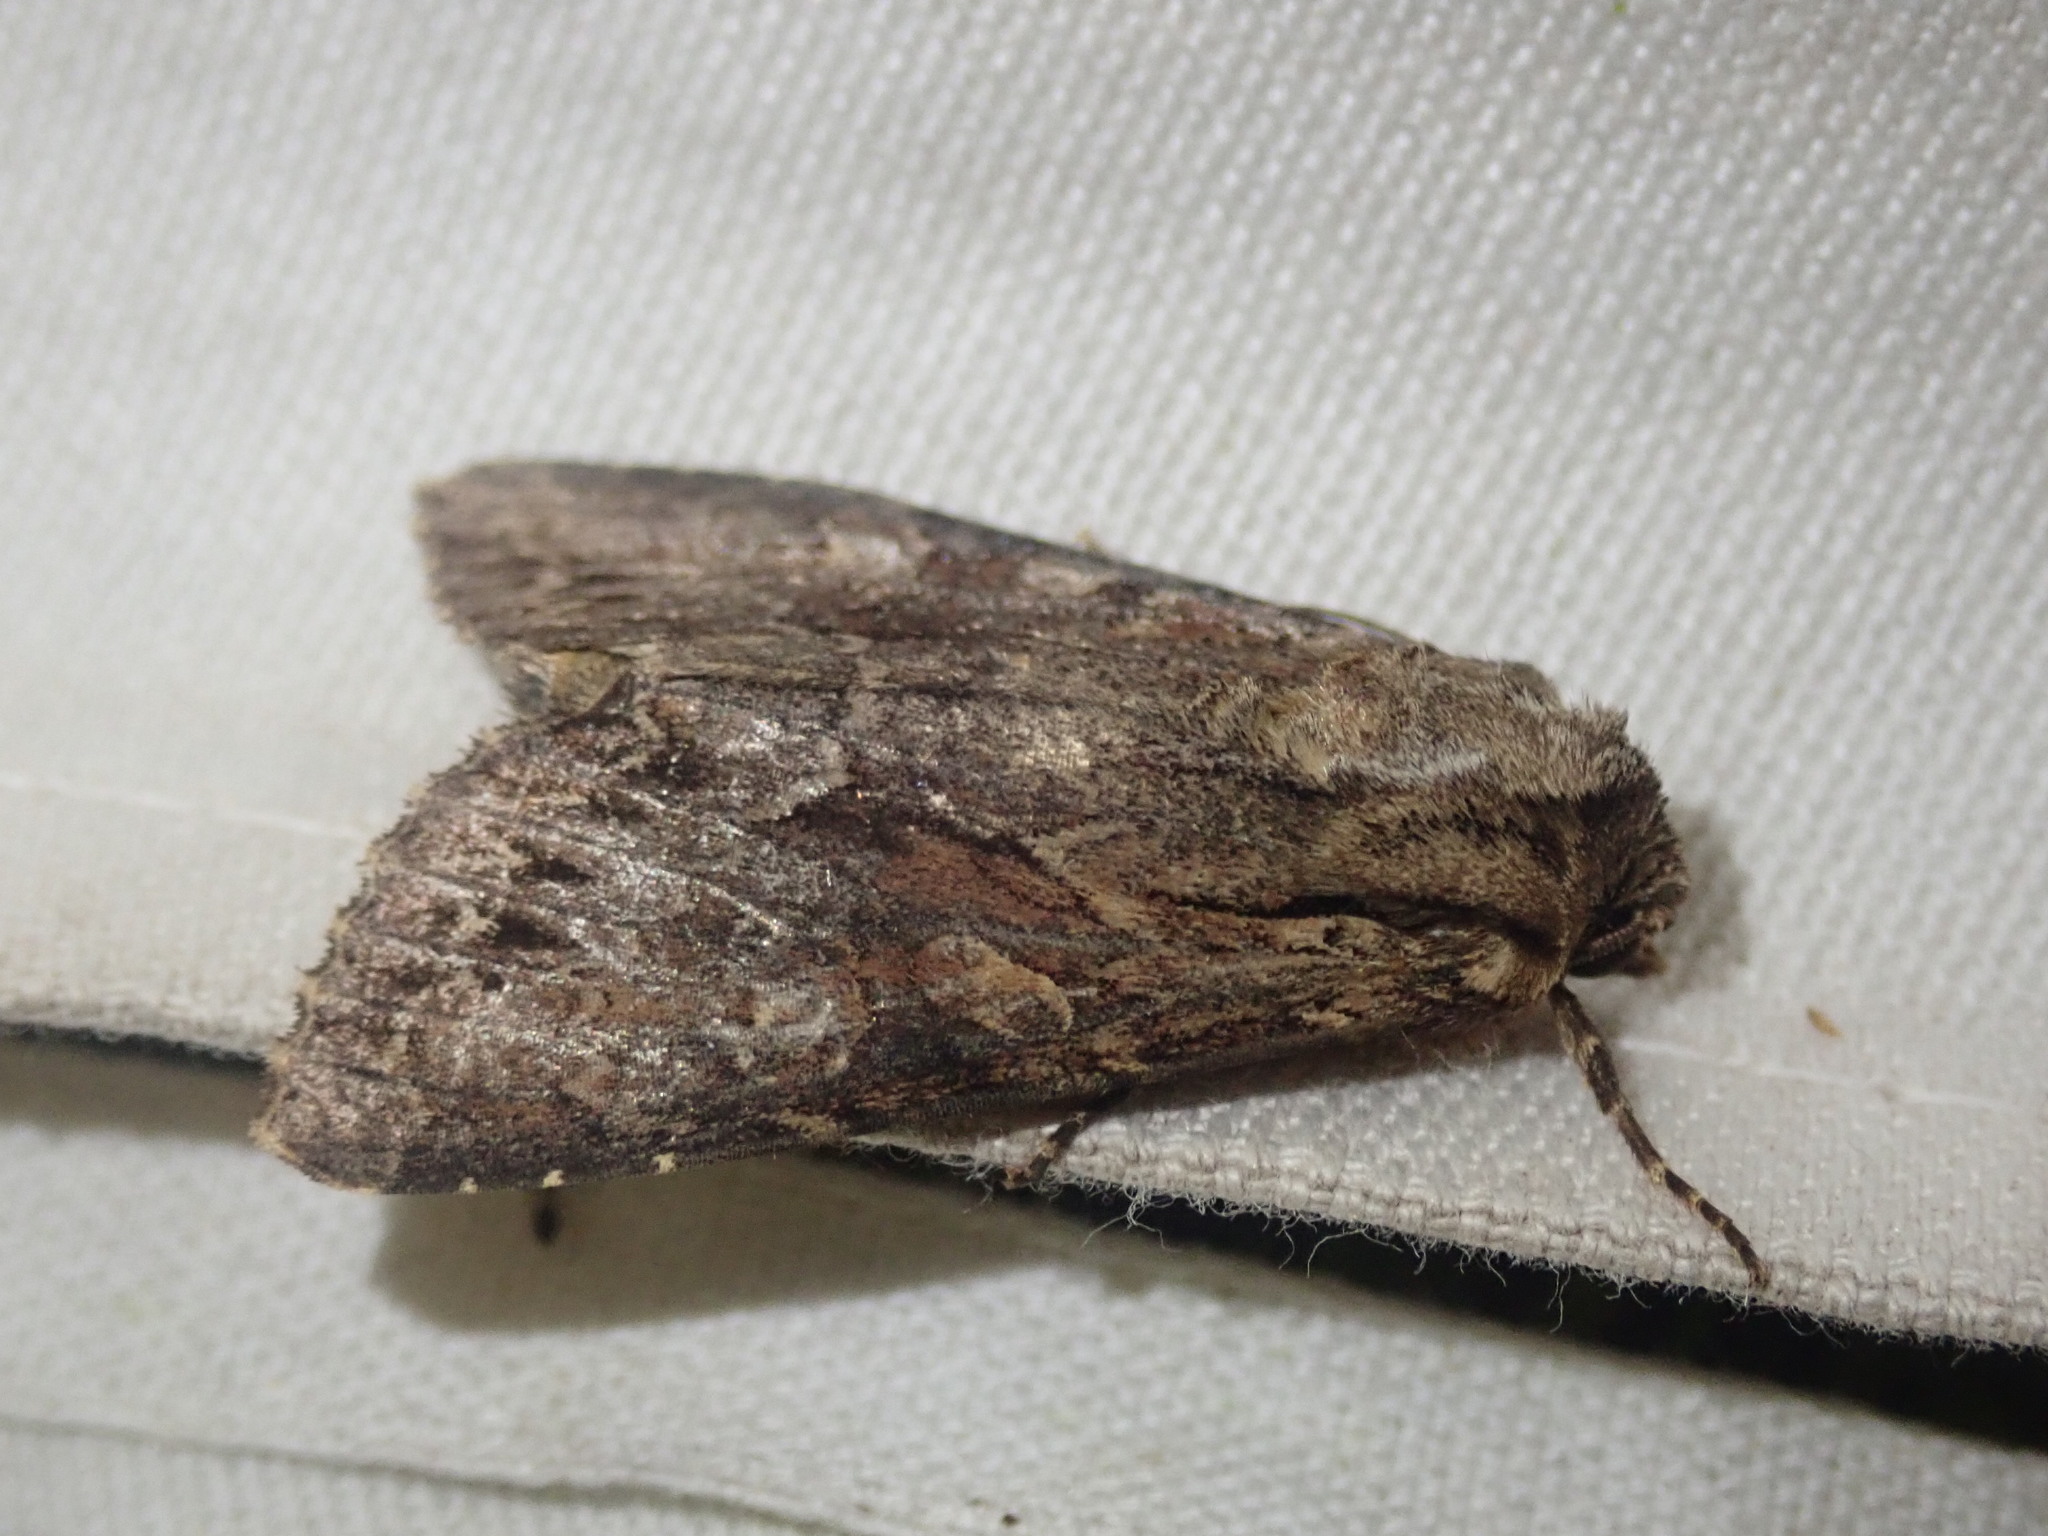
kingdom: Animalia
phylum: Arthropoda
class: Insecta
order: Lepidoptera
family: Noctuidae
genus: Apamea
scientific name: Apamea monoglypha
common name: Dark arches
